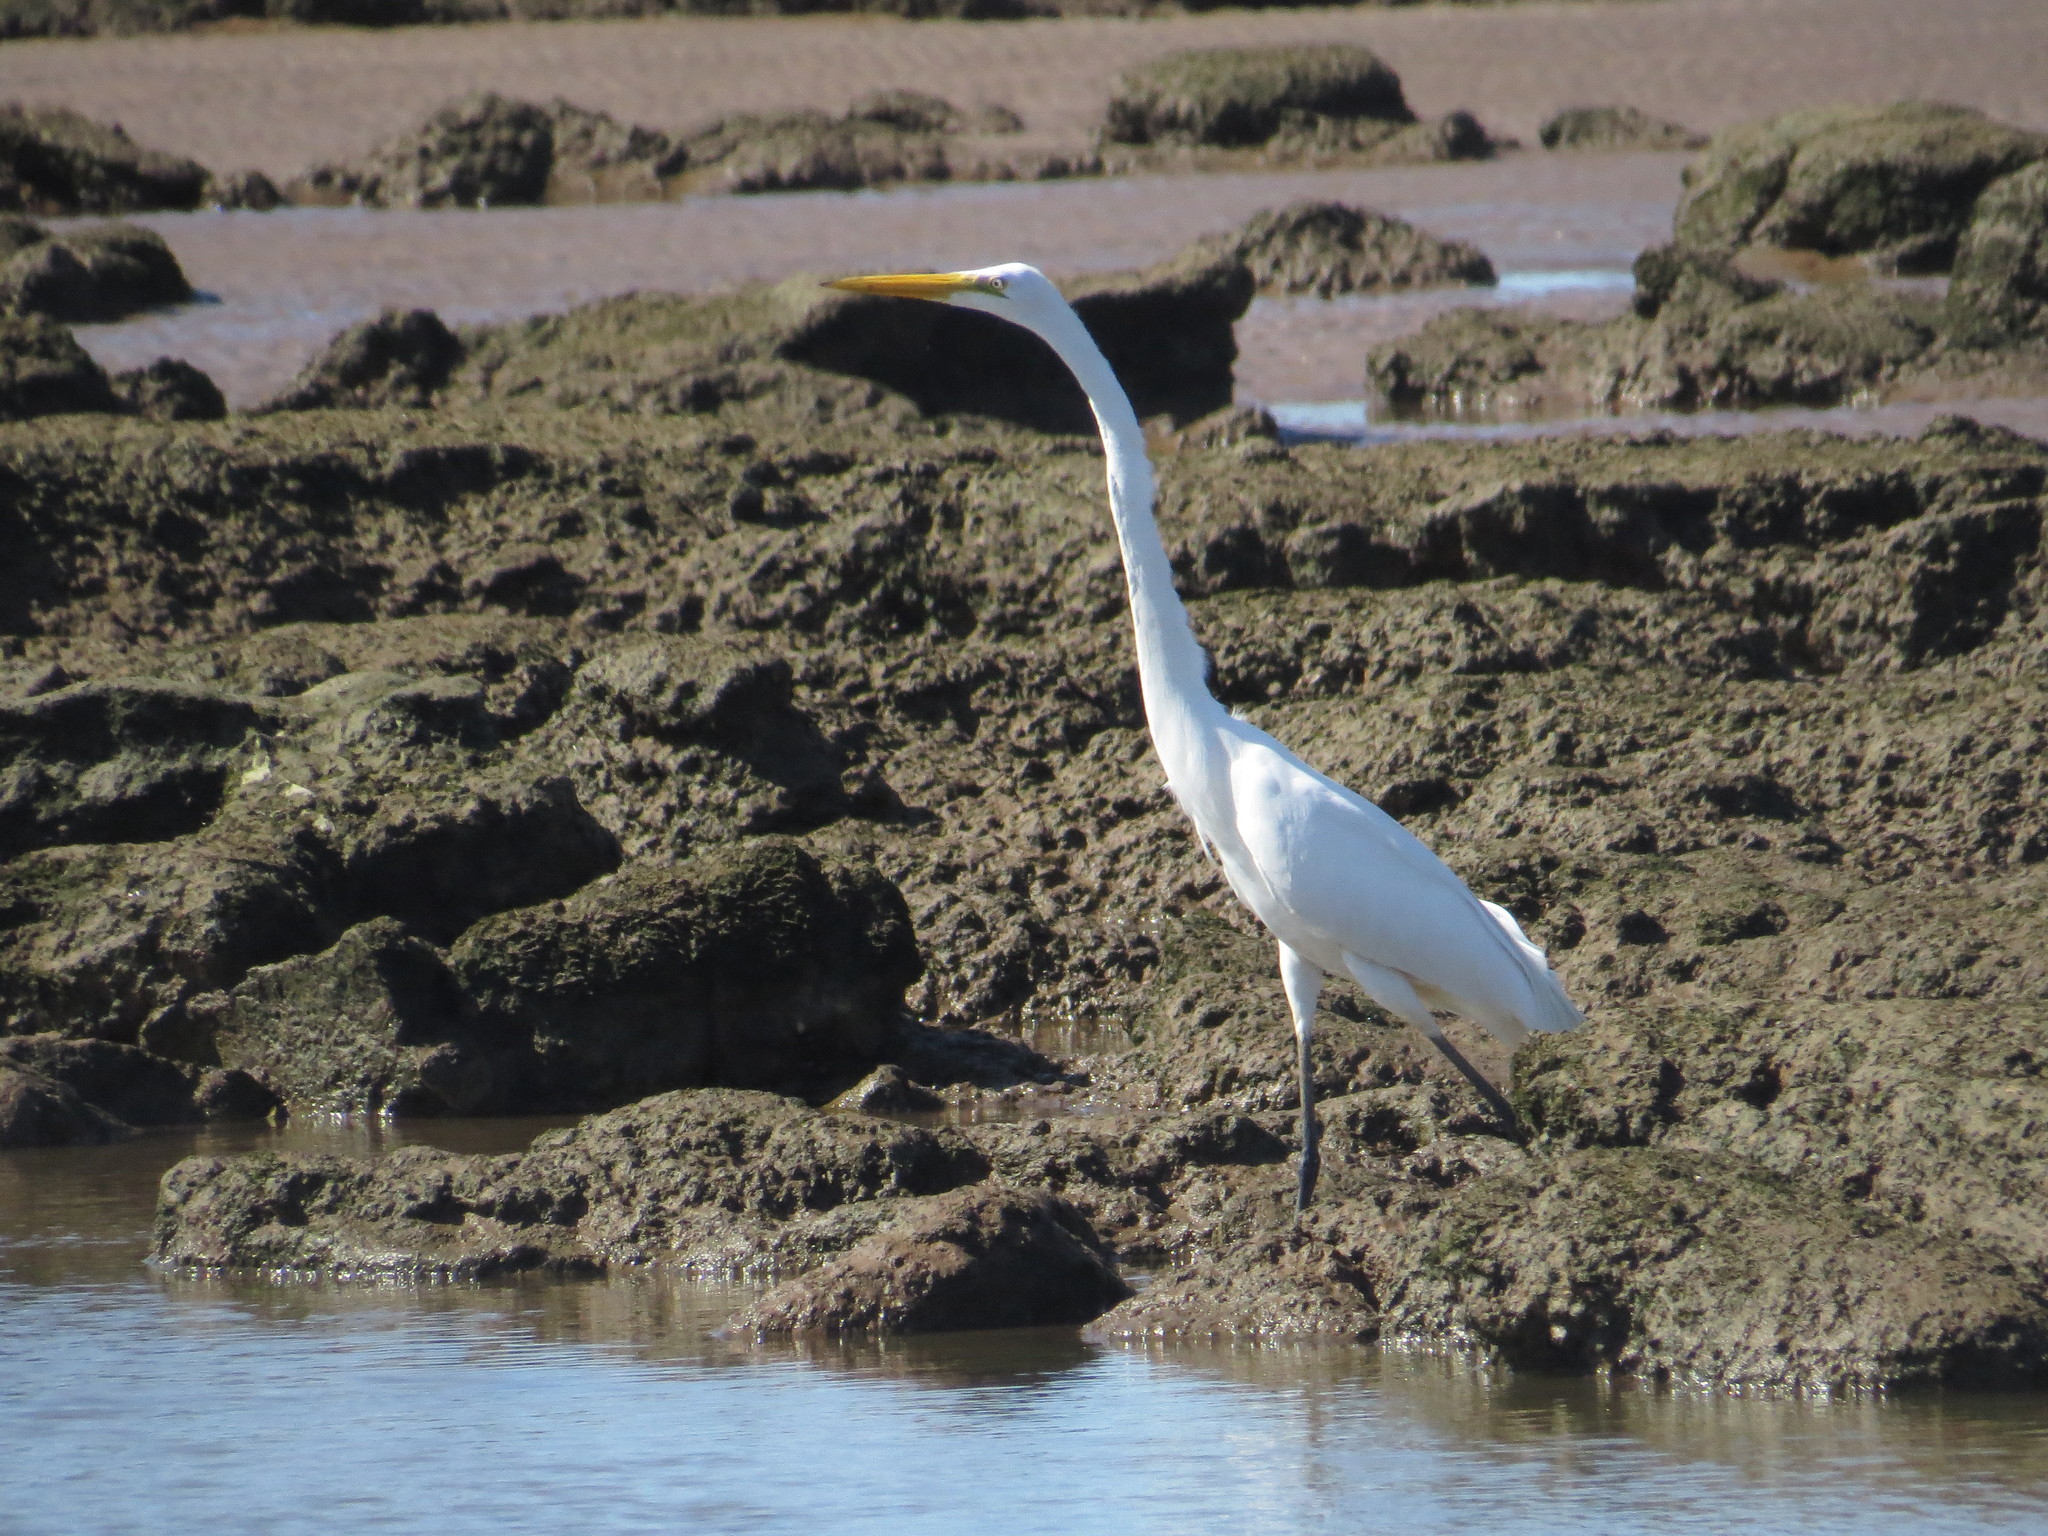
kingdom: Animalia
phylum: Chordata
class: Aves
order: Pelecaniformes
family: Ardeidae
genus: Ardea
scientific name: Ardea alba
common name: Great egret
